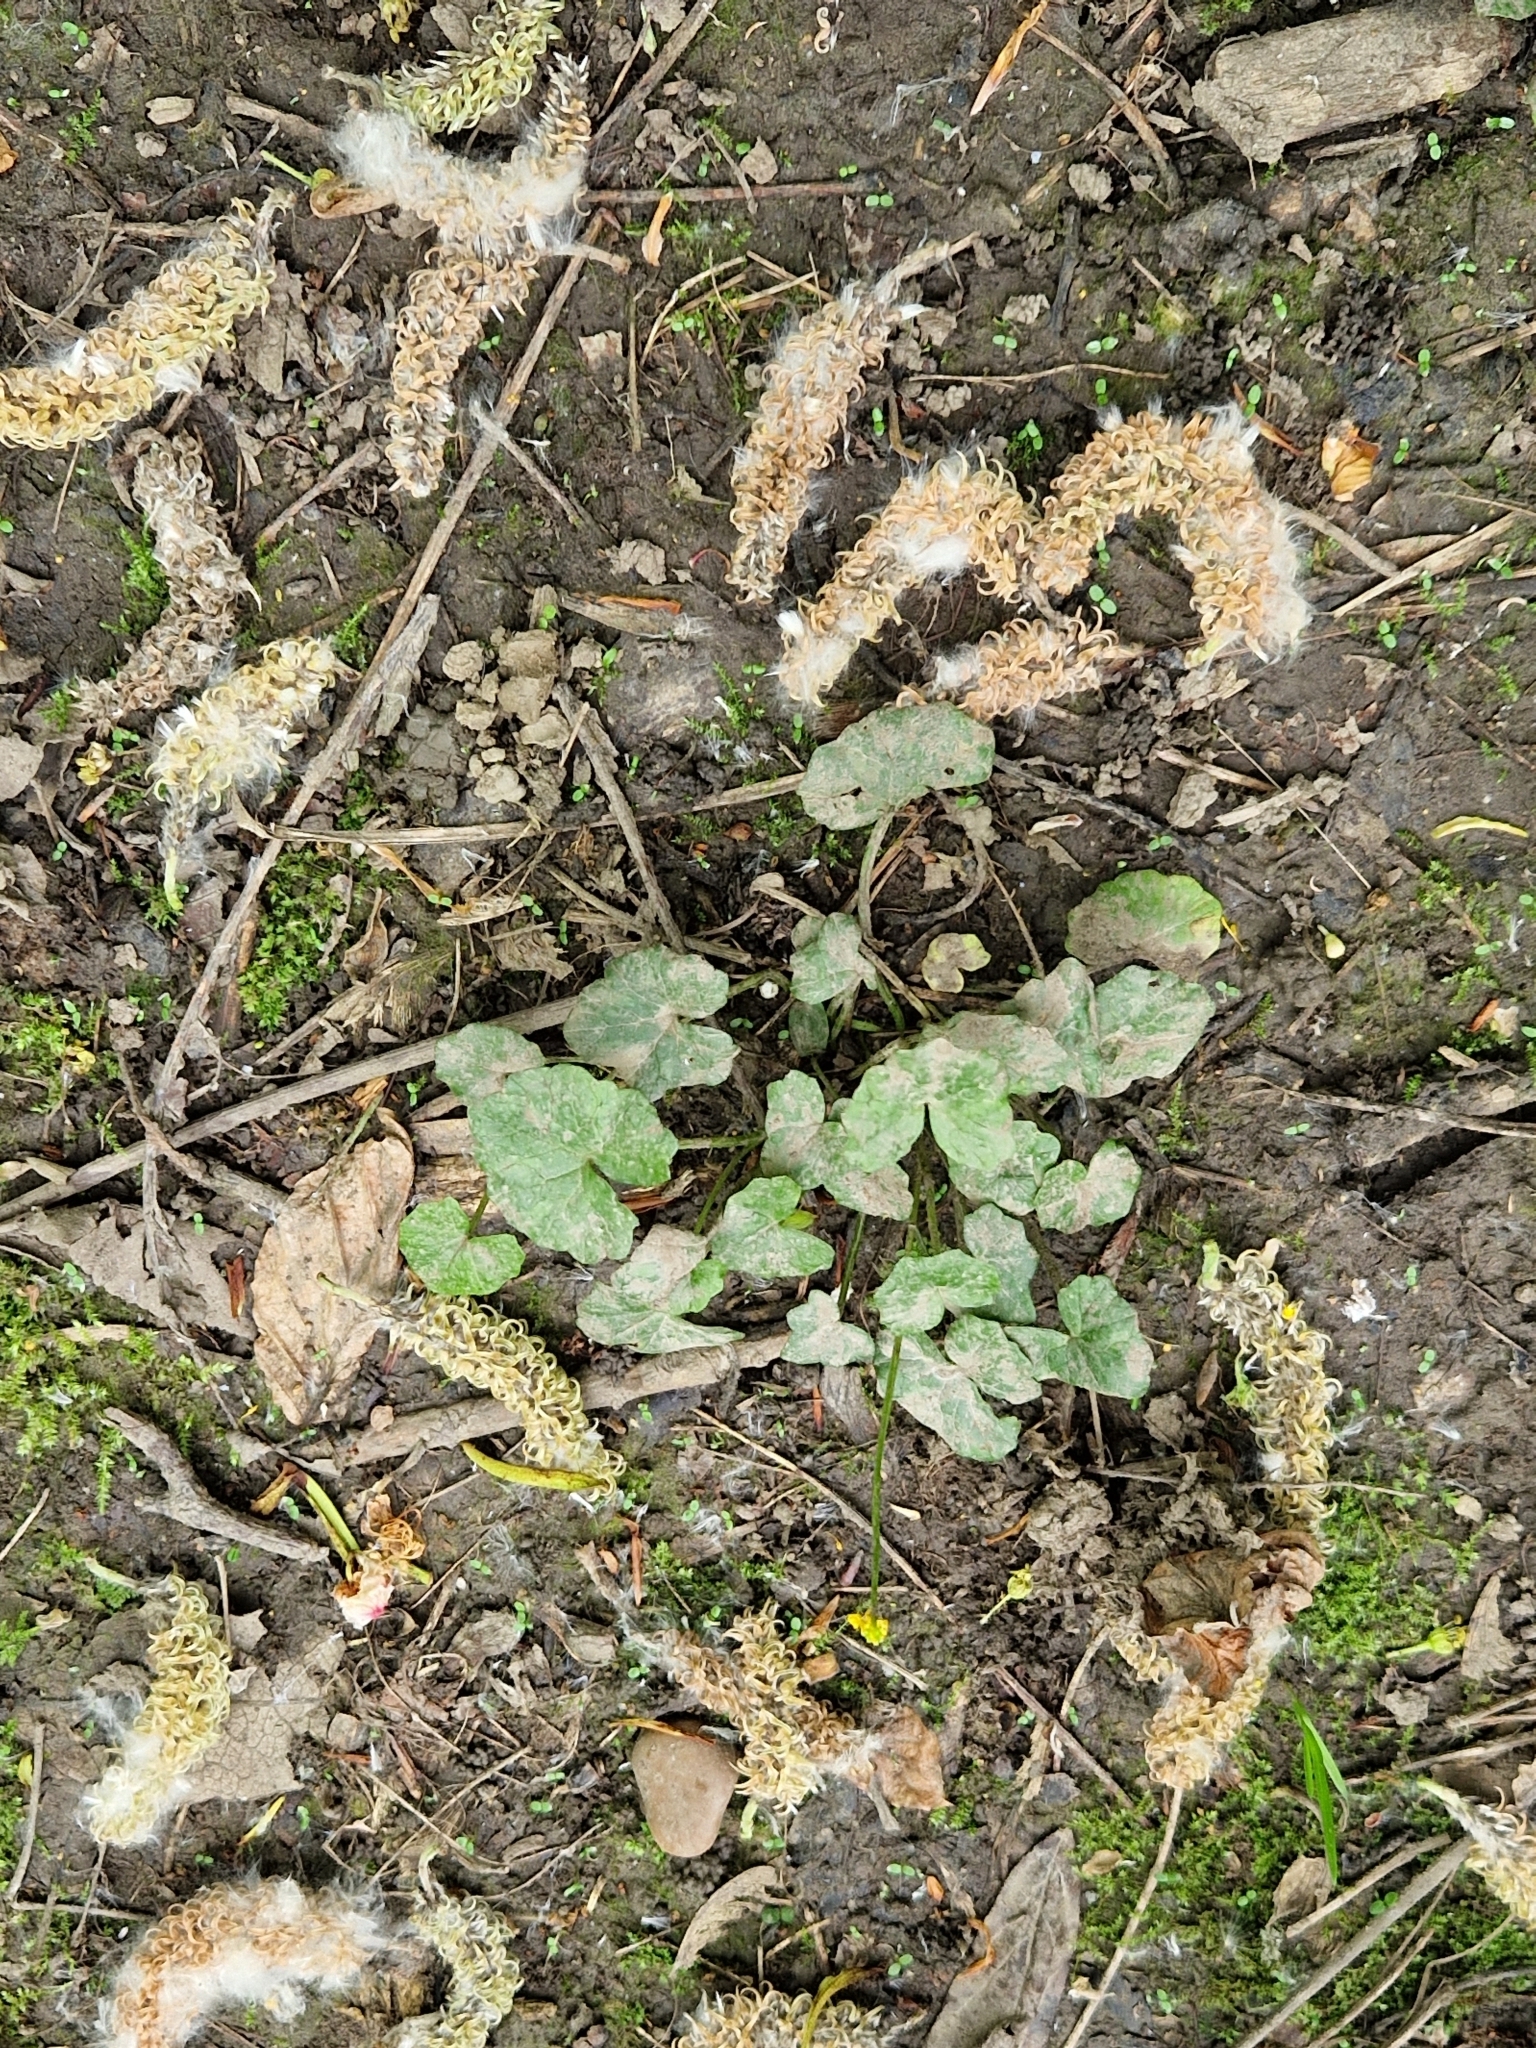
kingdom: Plantae
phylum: Tracheophyta
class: Magnoliopsida
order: Ranunculales
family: Ranunculaceae
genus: Ficaria
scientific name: Ficaria verna
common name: Lesser celandine
